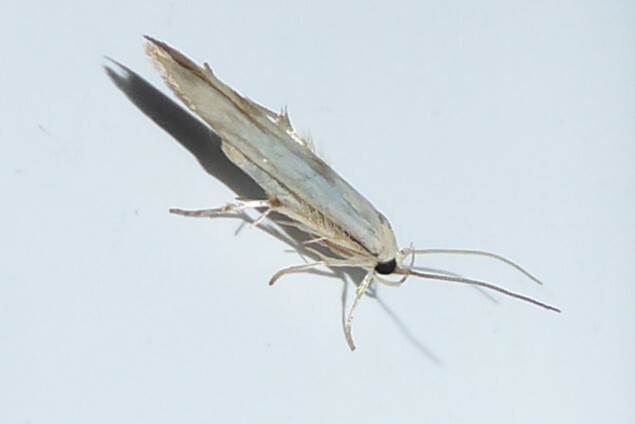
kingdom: Animalia
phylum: Arthropoda
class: Insecta
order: Lepidoptera
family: Stathmopodidae
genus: Stathmopoda
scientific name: Stathmopoda horticola
